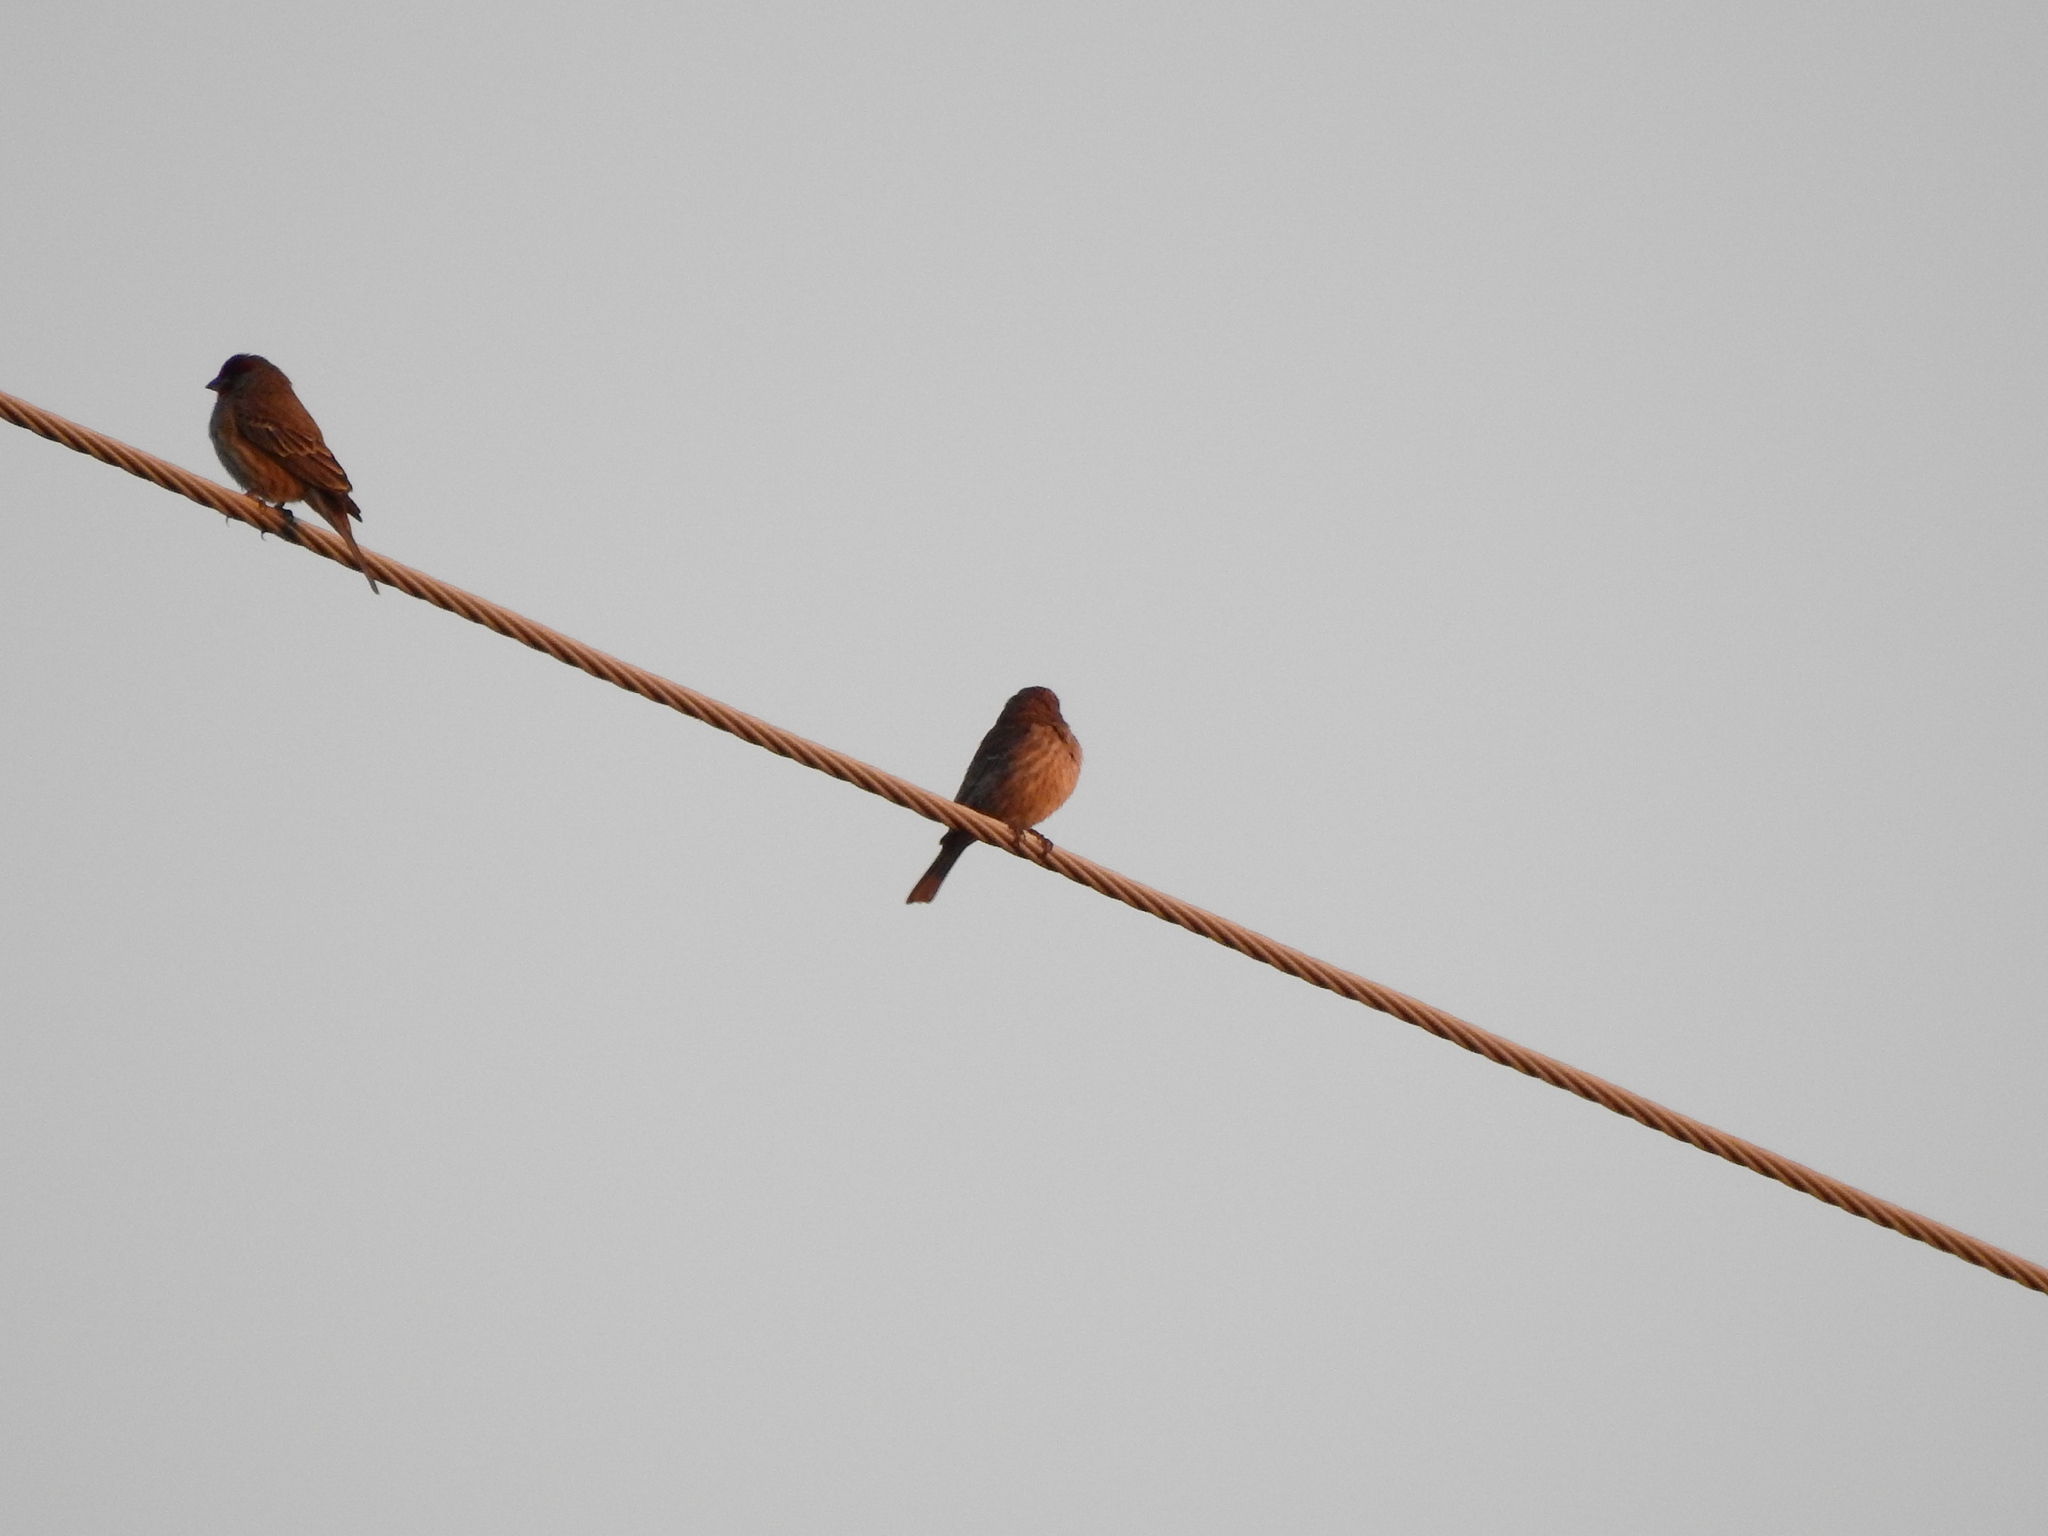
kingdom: Animalia
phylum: Chordata
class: Aves
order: Passeriformes
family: Fringillidae
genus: Haemorhous
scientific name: Haemorhous mexicanus
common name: House finch
